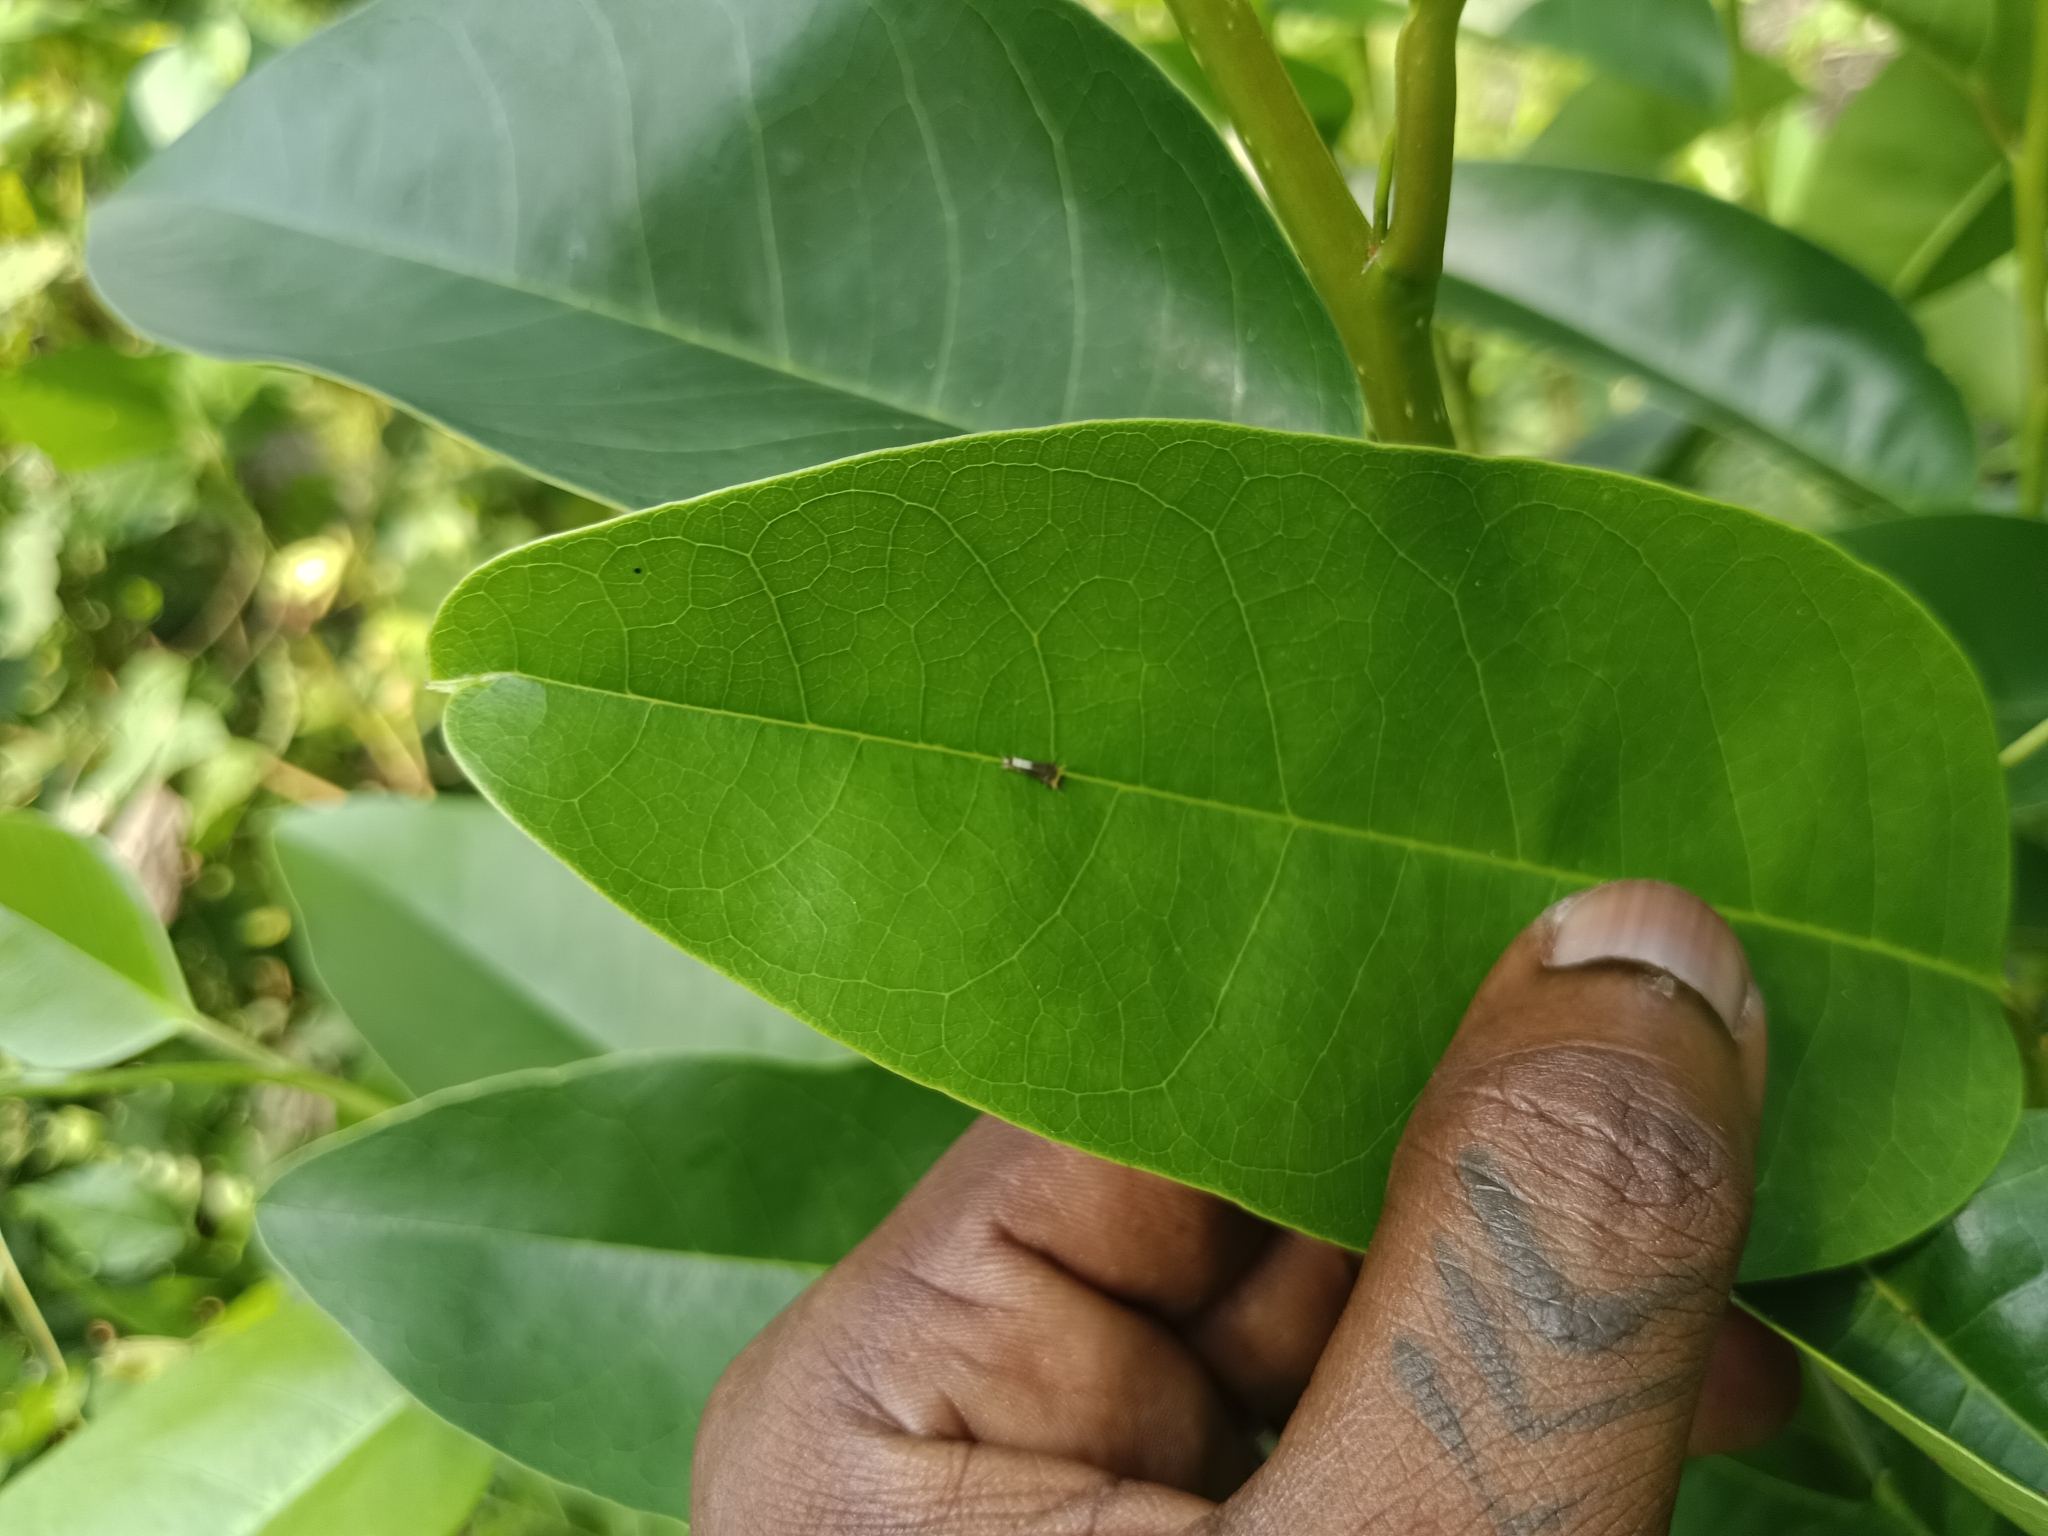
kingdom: Animalia
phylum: Arthropoda
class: Insecta
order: Lepidoptera
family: Papilionidae
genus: Graphium
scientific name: Graphium agamemnon
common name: Tailed jay
